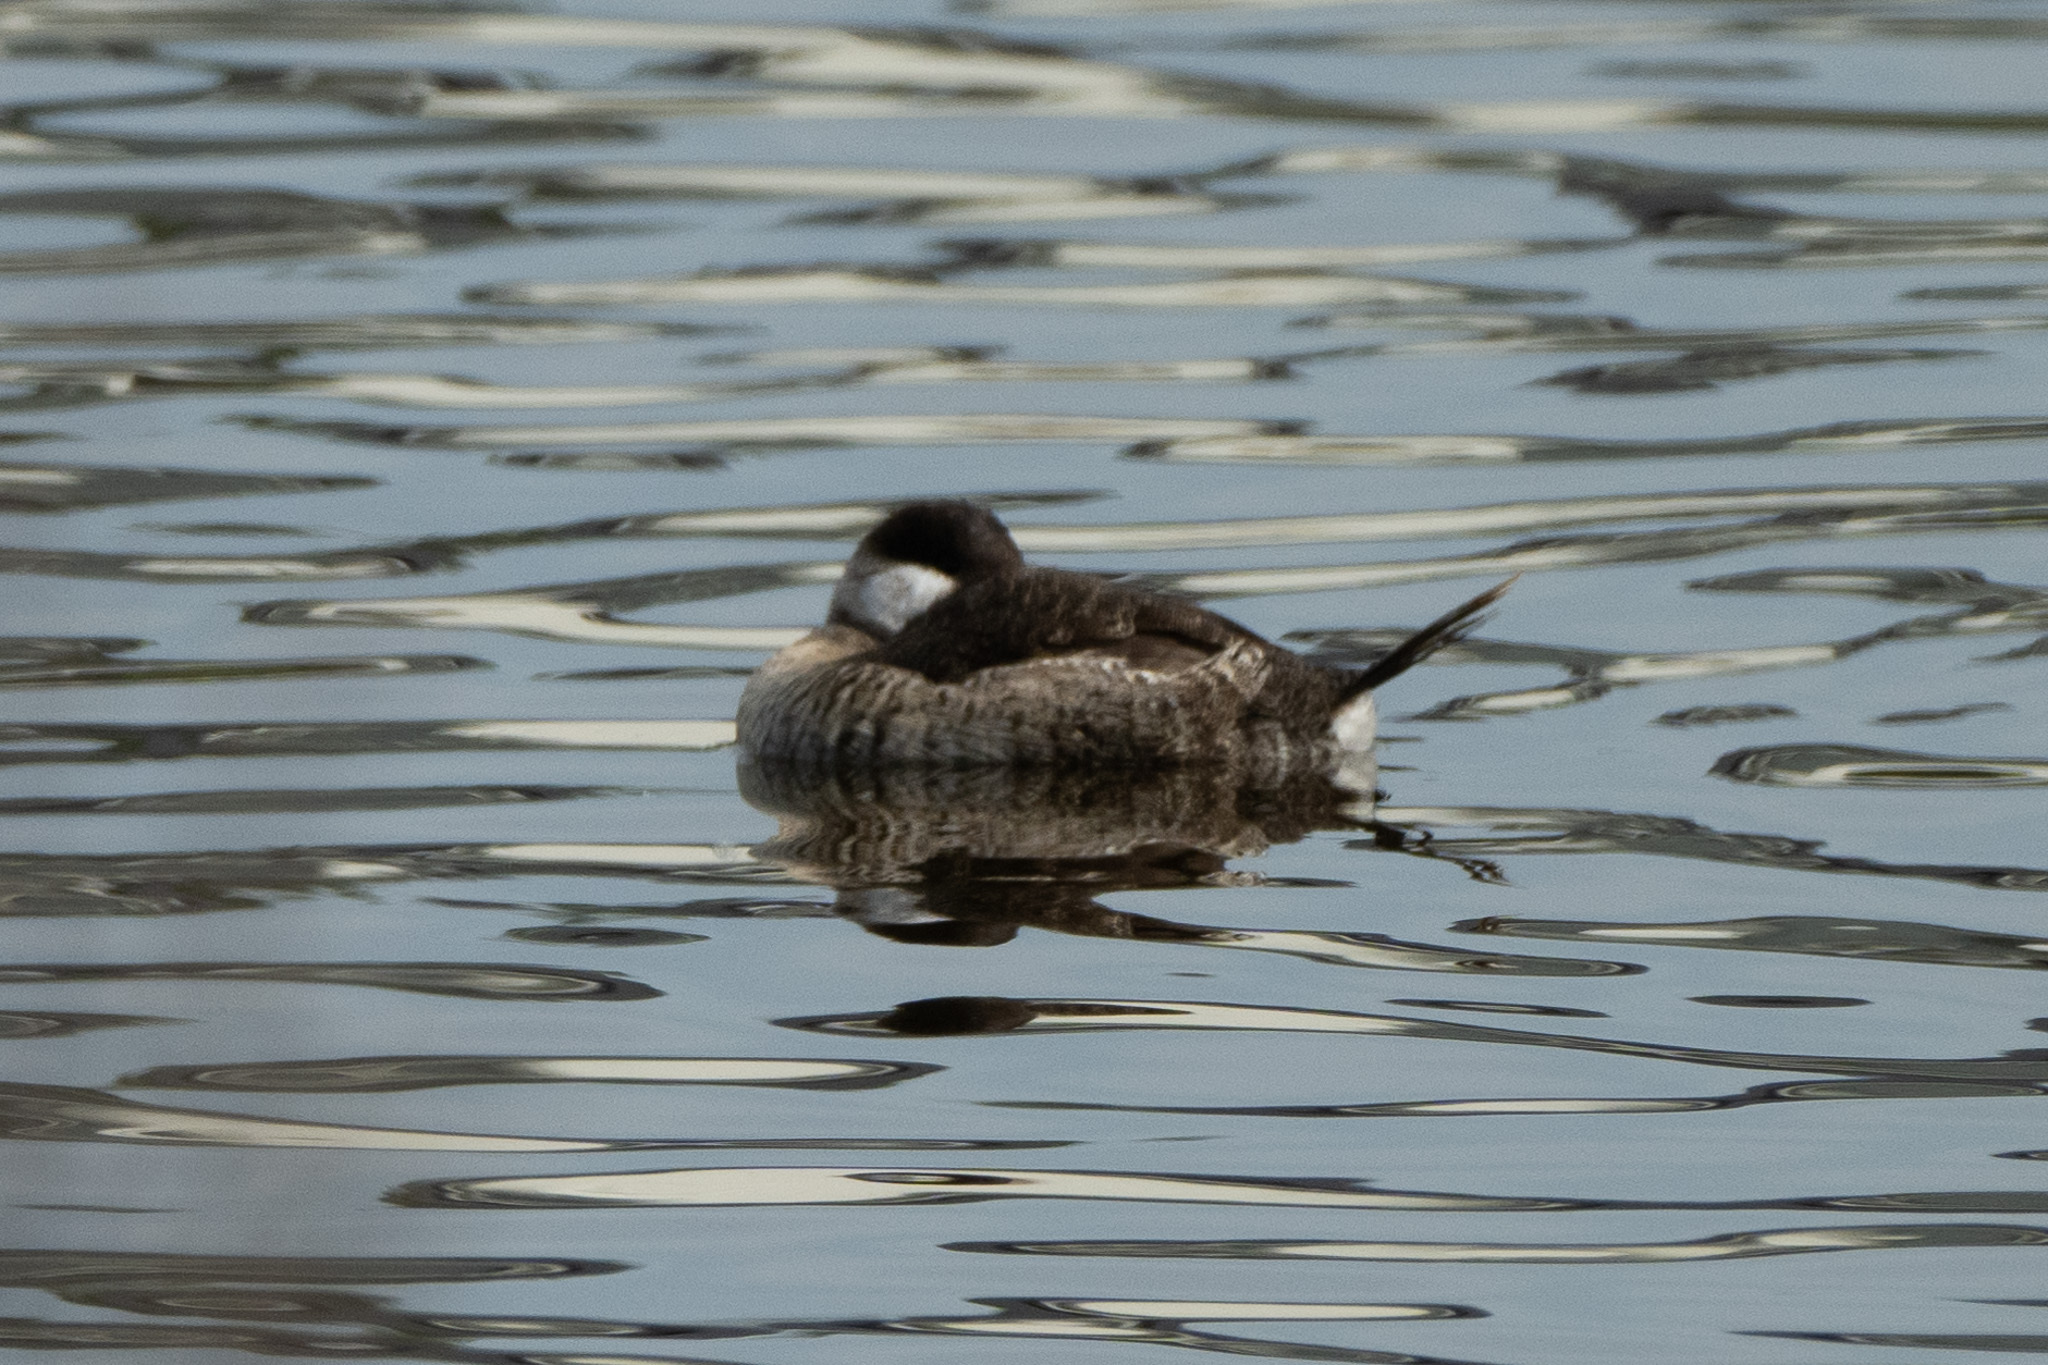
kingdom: Animalia
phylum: Chordata
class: Aves
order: Anseriformes
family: Anatidae
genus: Oxyura
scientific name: Oxyura jamaicensis
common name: Ruddy duck
